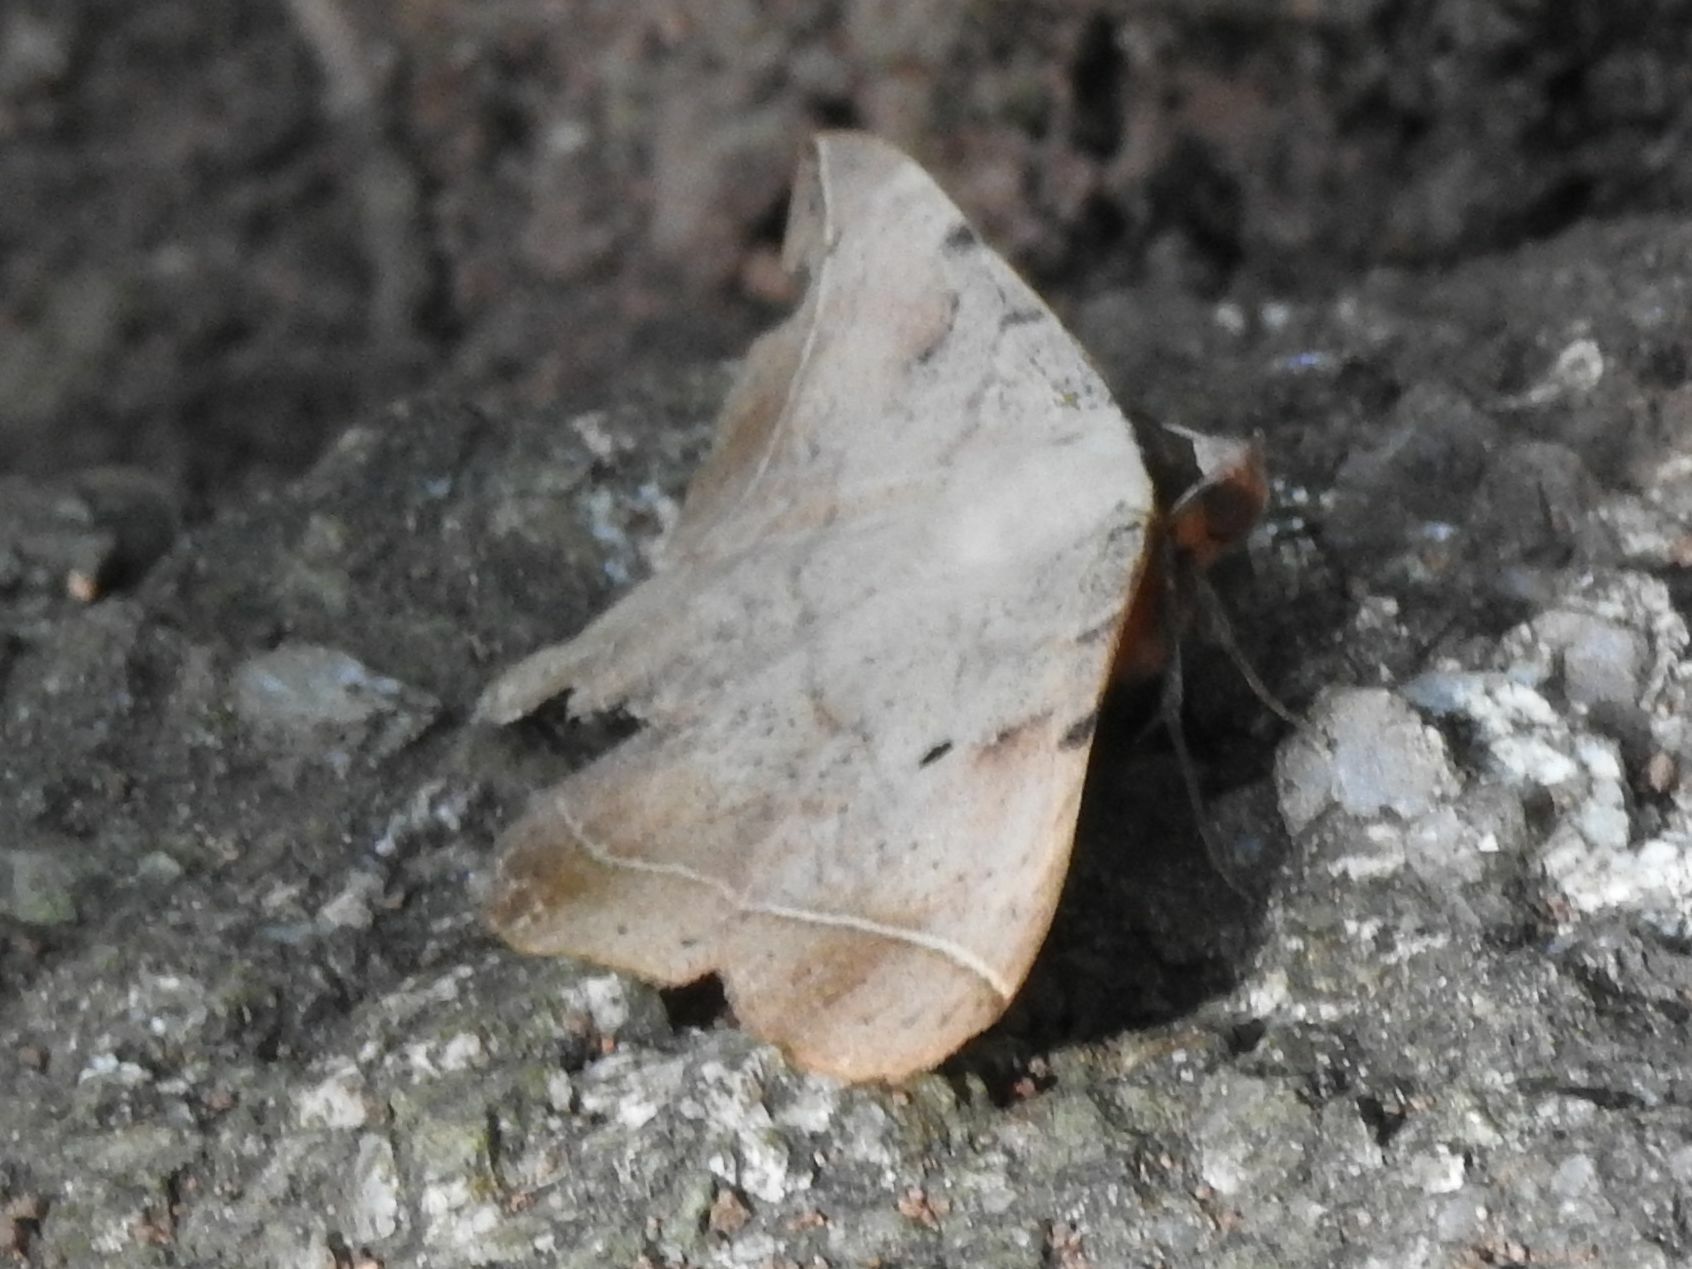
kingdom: Animalia
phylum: Arthropoda
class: Insecta
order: Lepidoptera
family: Erebidae
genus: Hypopyra
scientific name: Hypopyra capensis
